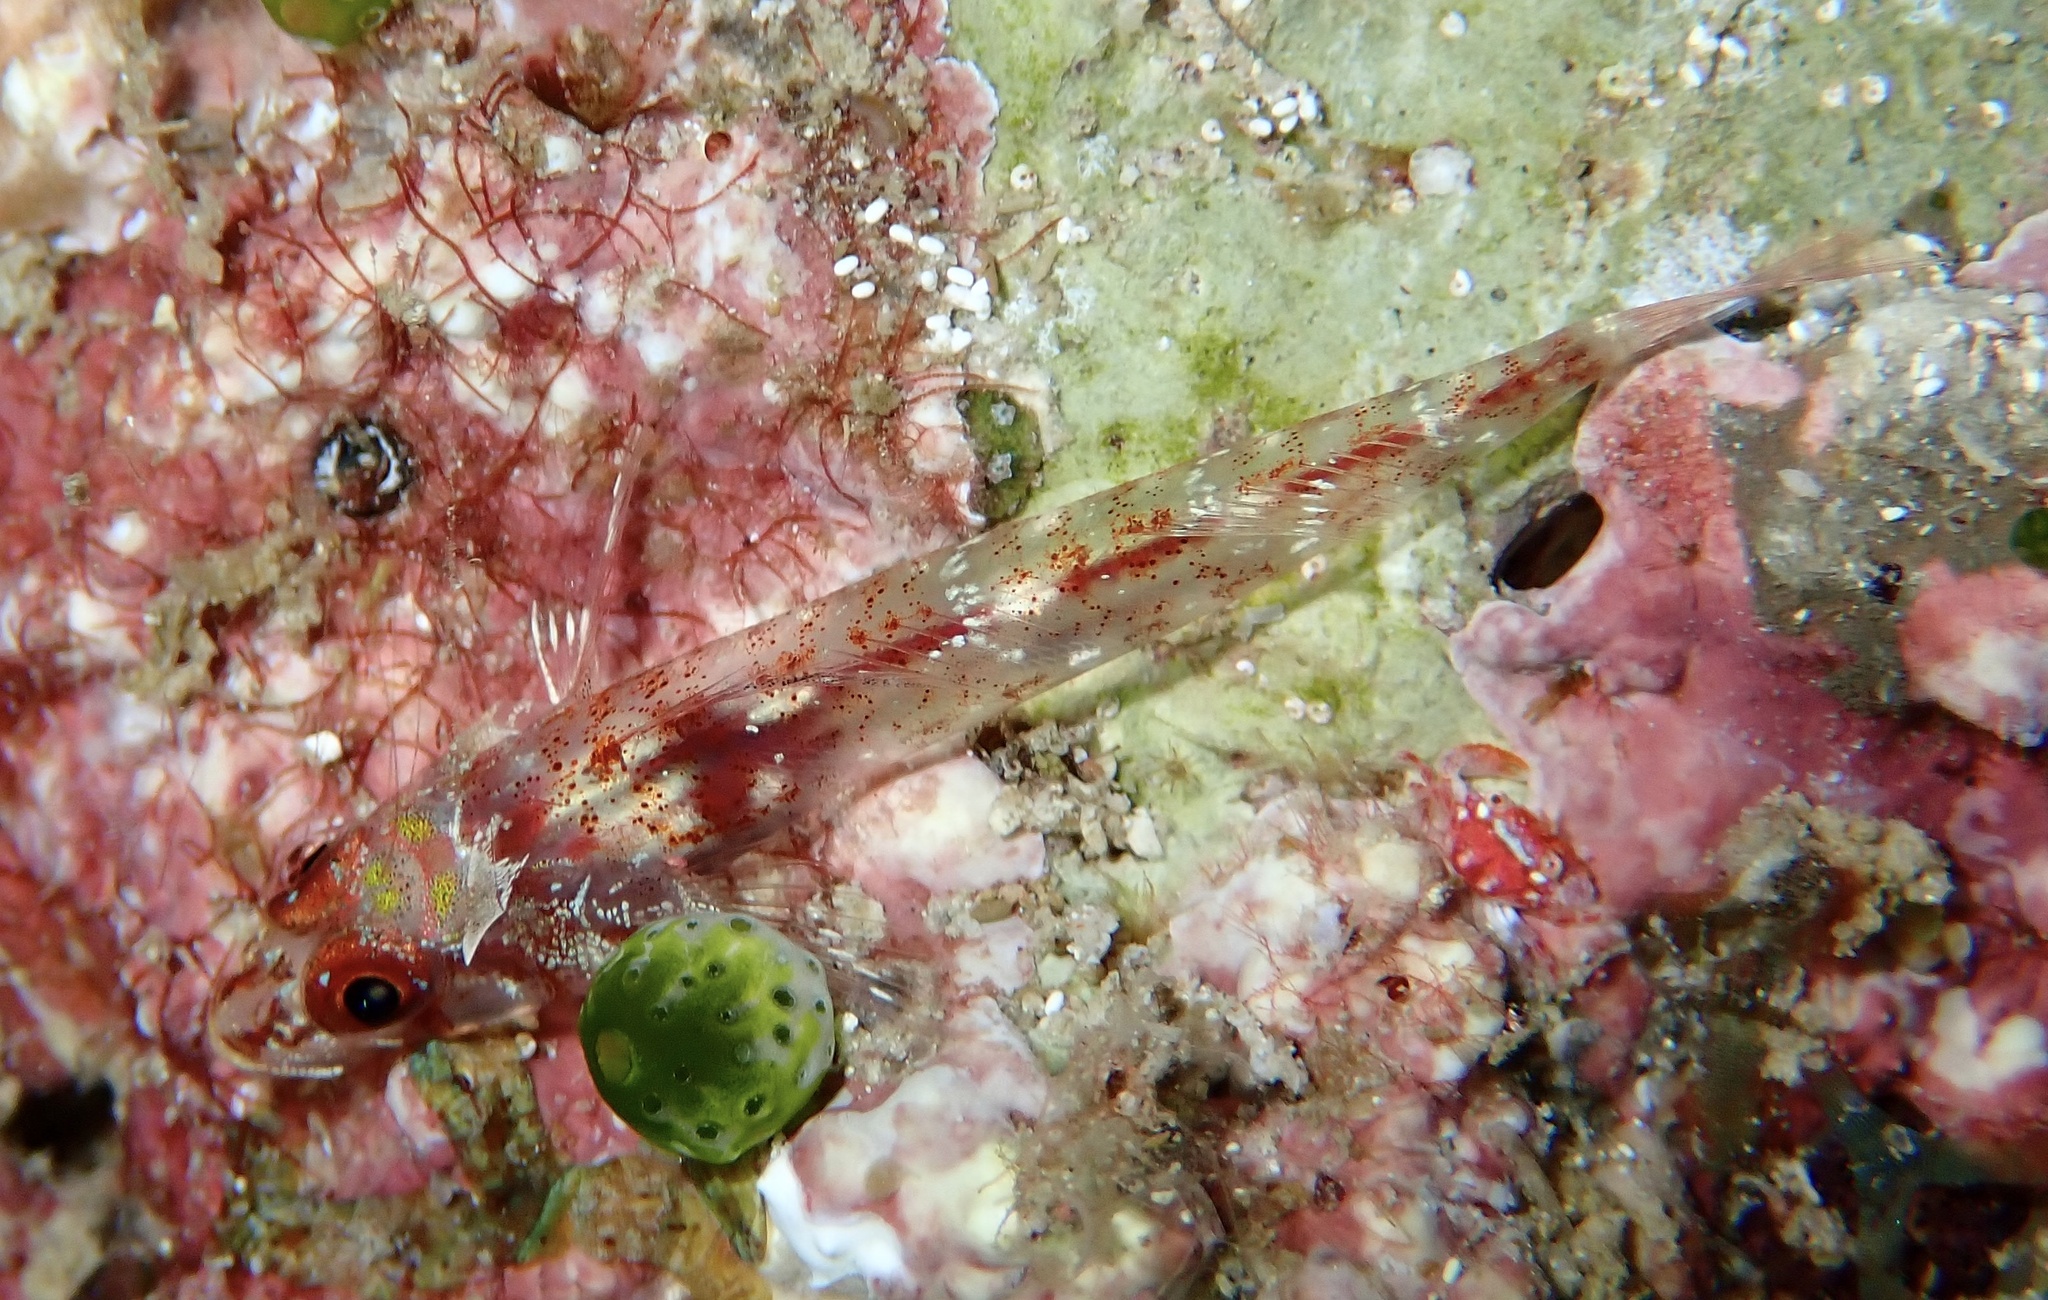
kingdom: Animalia
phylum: Chordata
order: Perciformes
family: Tripterygiidae
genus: Ucla
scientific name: Ucla xenogrammus
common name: Largemouth triplefin
